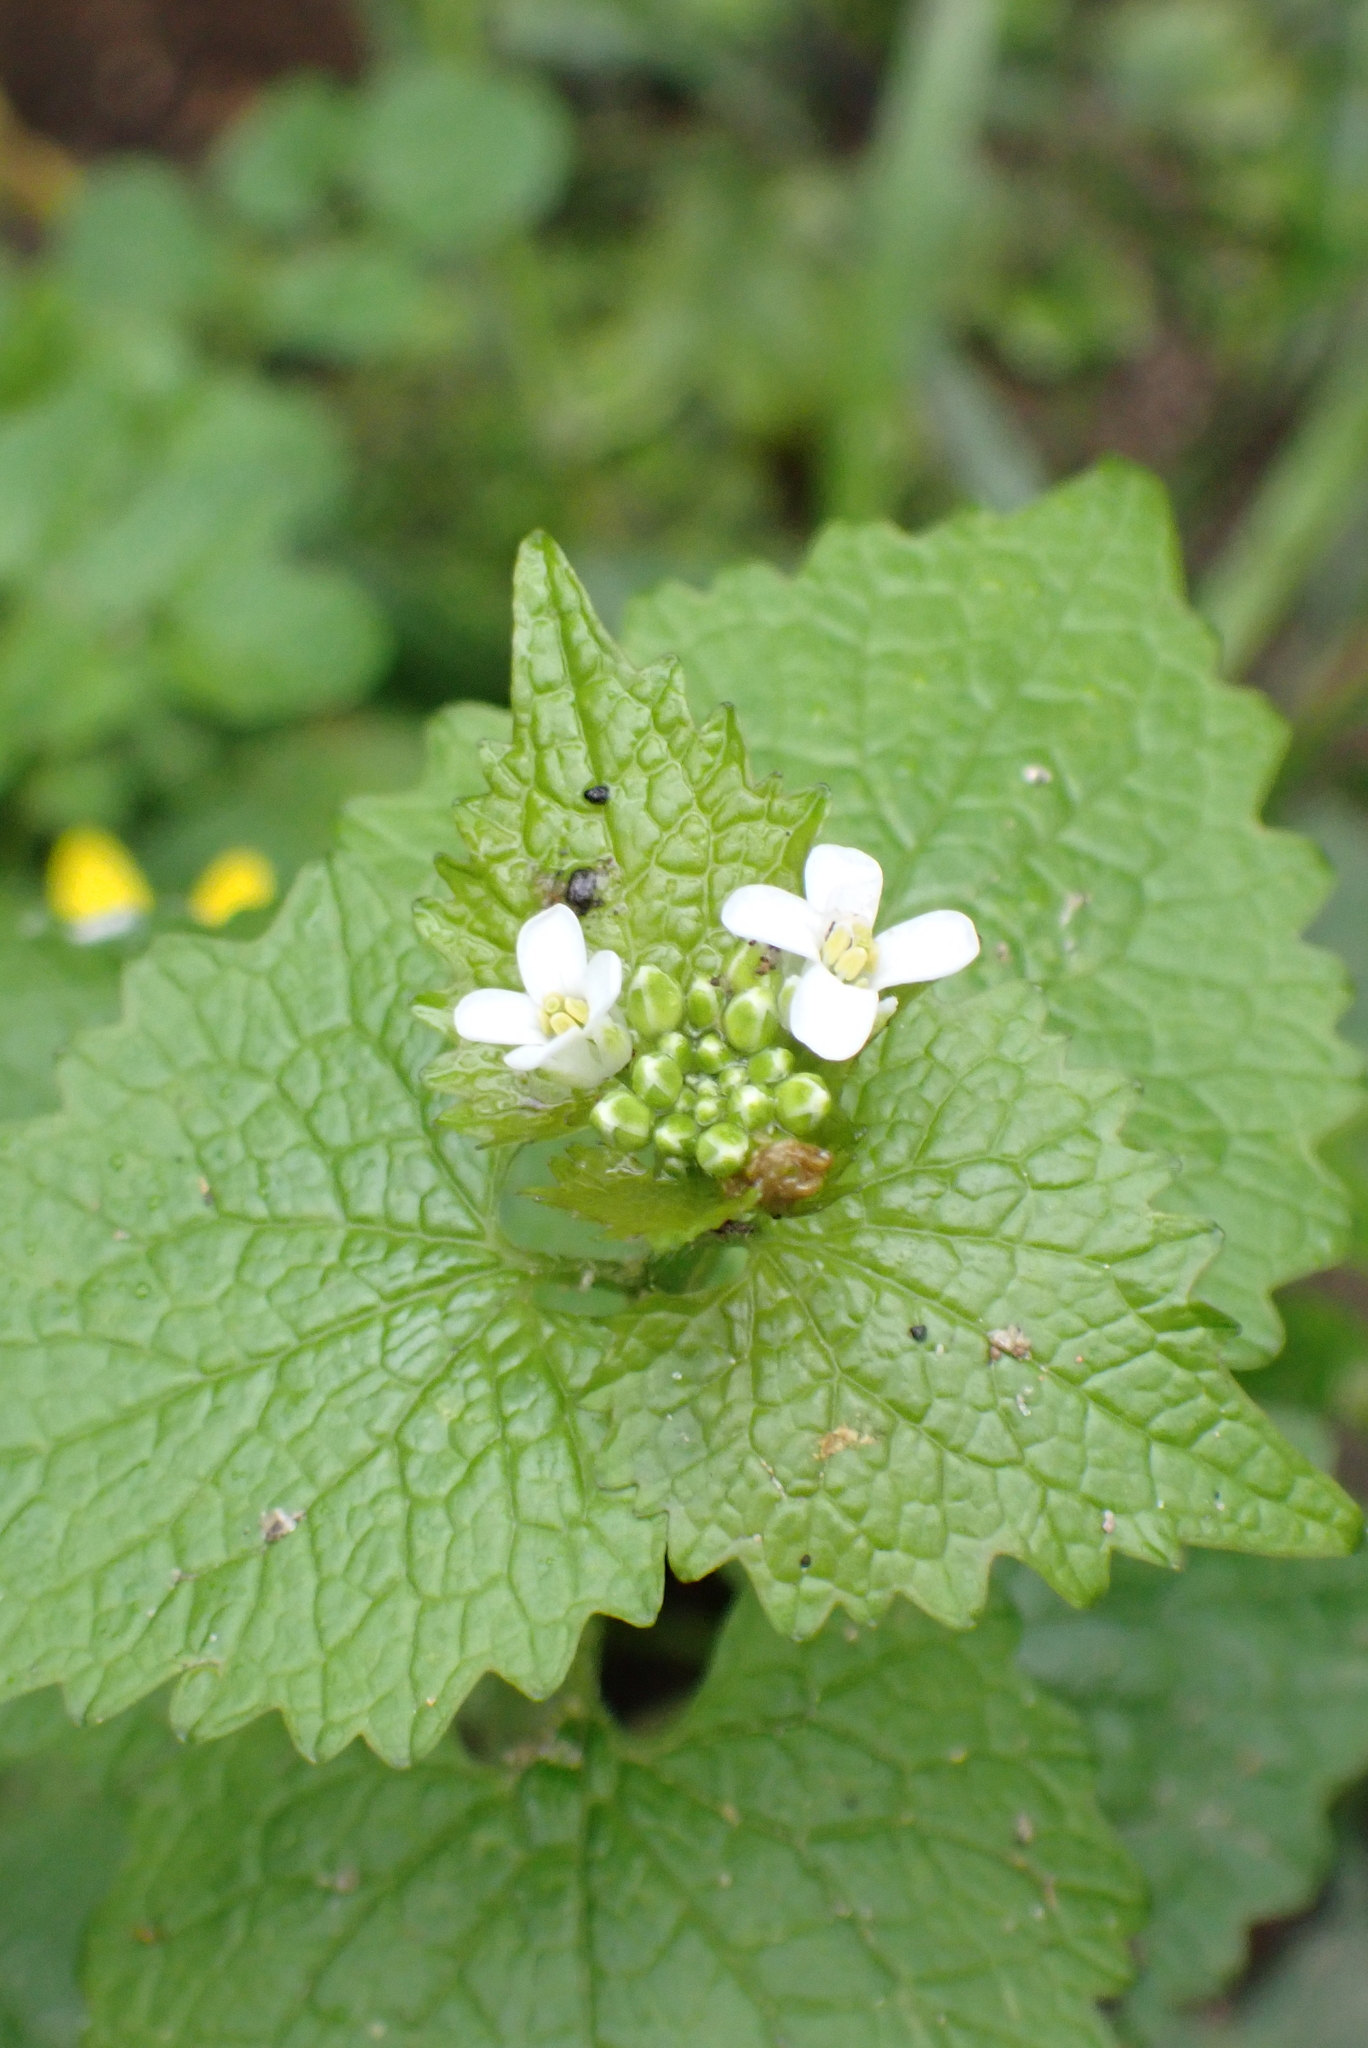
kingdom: Plantae
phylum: Tracheophyta
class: Magnoliopsida
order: Brassicales
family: Brassicaceae
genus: Alliaria
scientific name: Alliaria petiolata
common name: Garlic mustard
